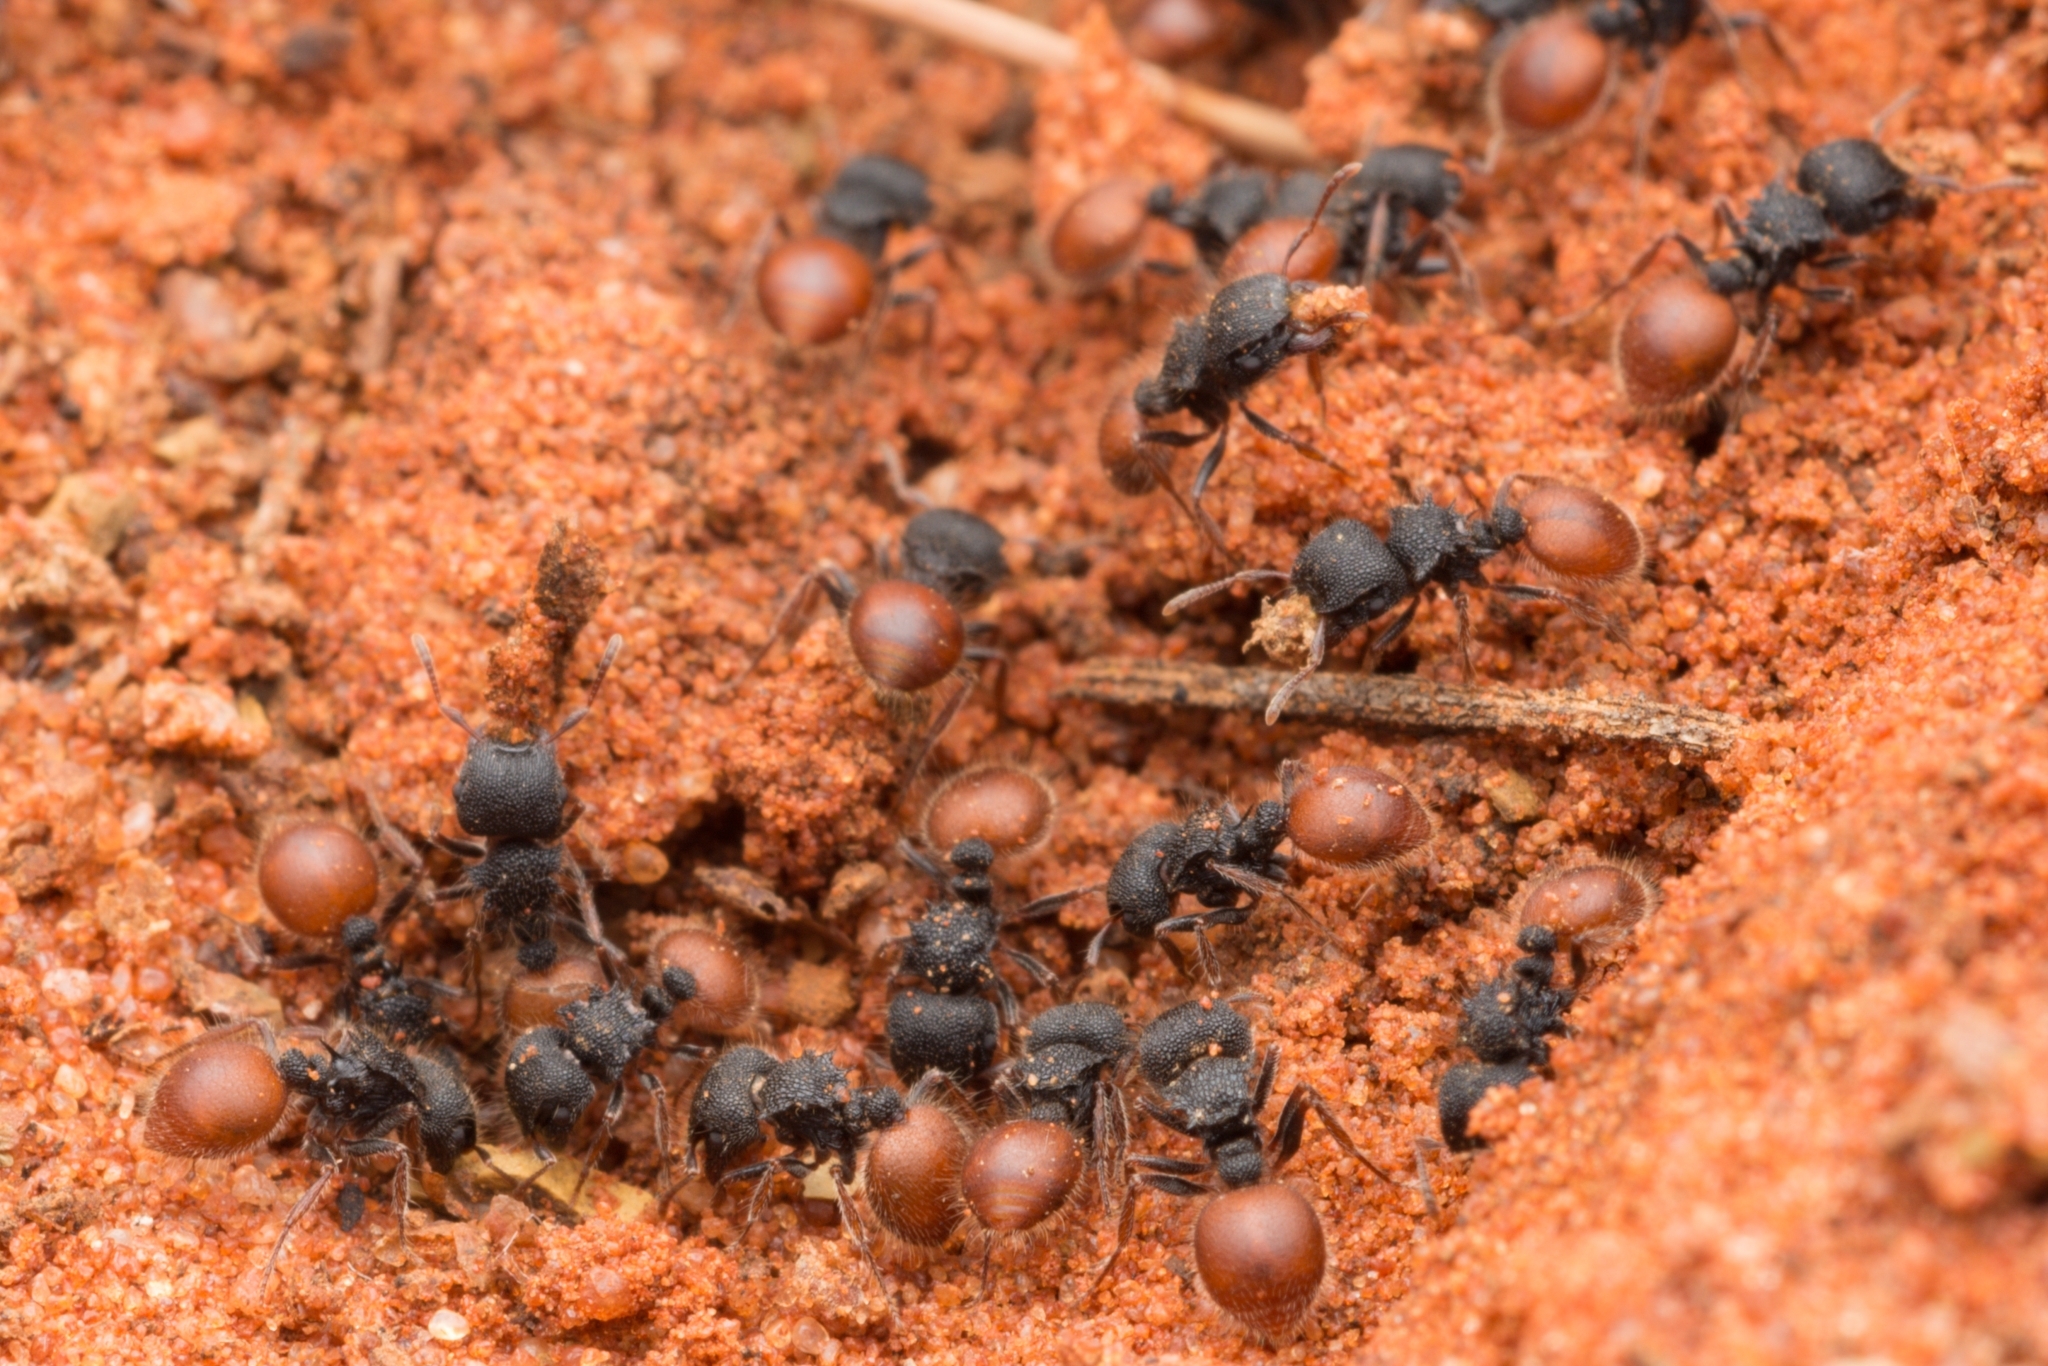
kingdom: Animalia
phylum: Arthropoda
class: Insecta
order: Hymenoptera
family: Formicidae
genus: Meranoplus
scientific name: Meranoplus mcarthuri
